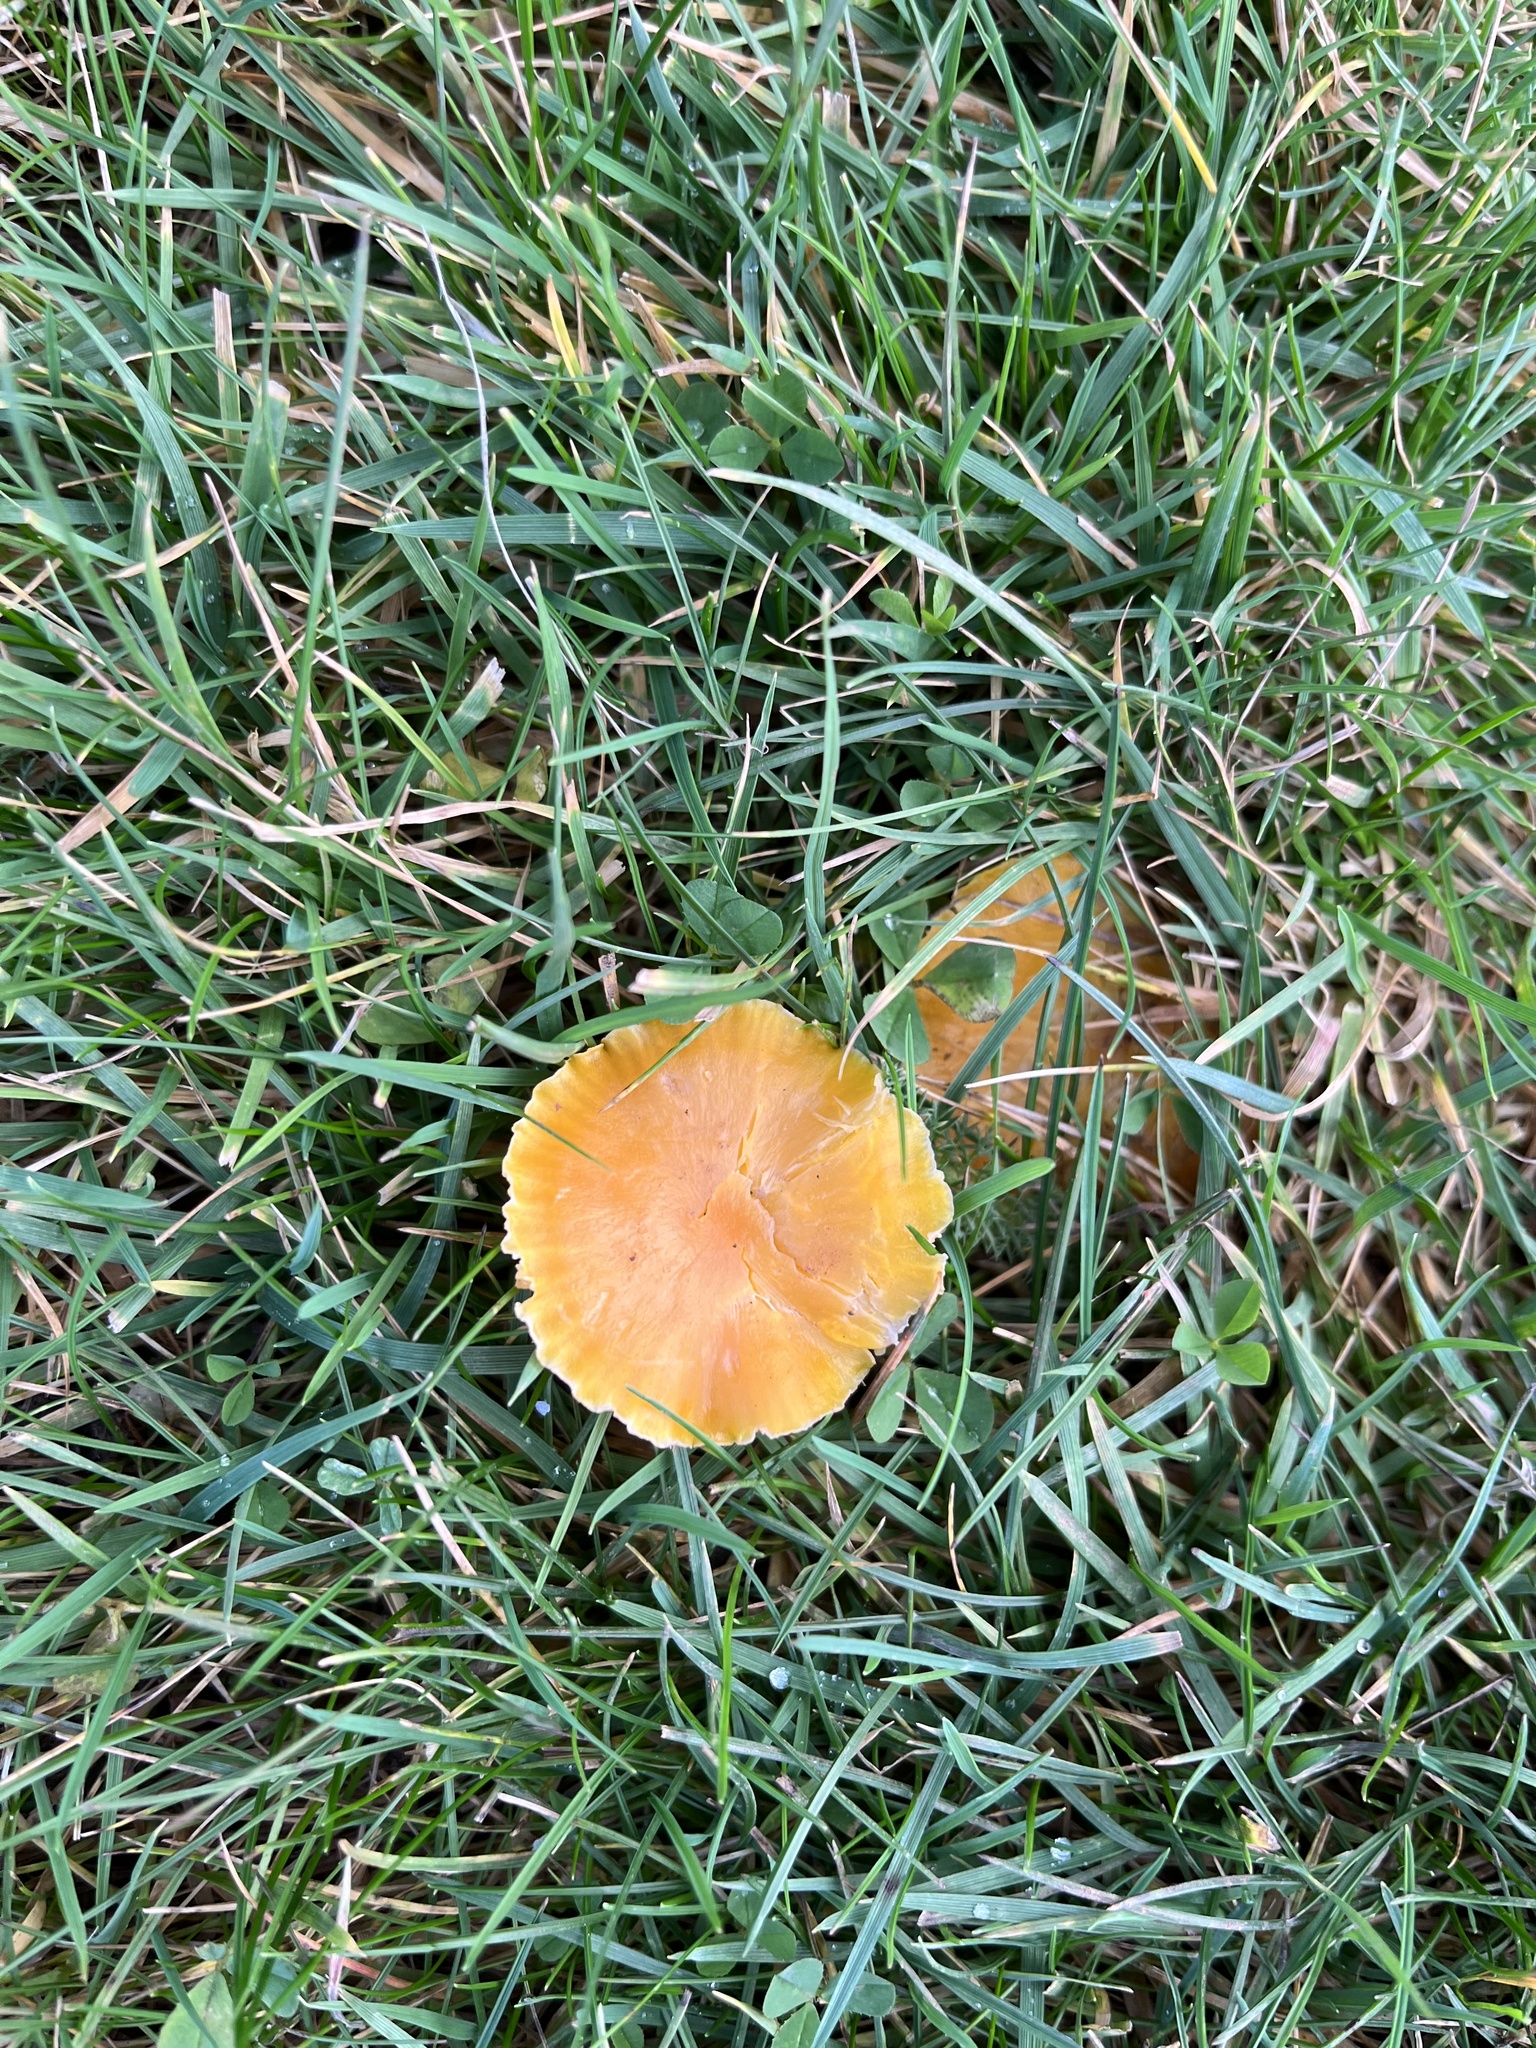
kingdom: Fungi
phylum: Basidiomycota
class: Agaricomycetes
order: Agaricales
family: Hygrophoraceae
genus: Hygrocybe
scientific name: Hygrocybe ceracea
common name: Butter waxcap
